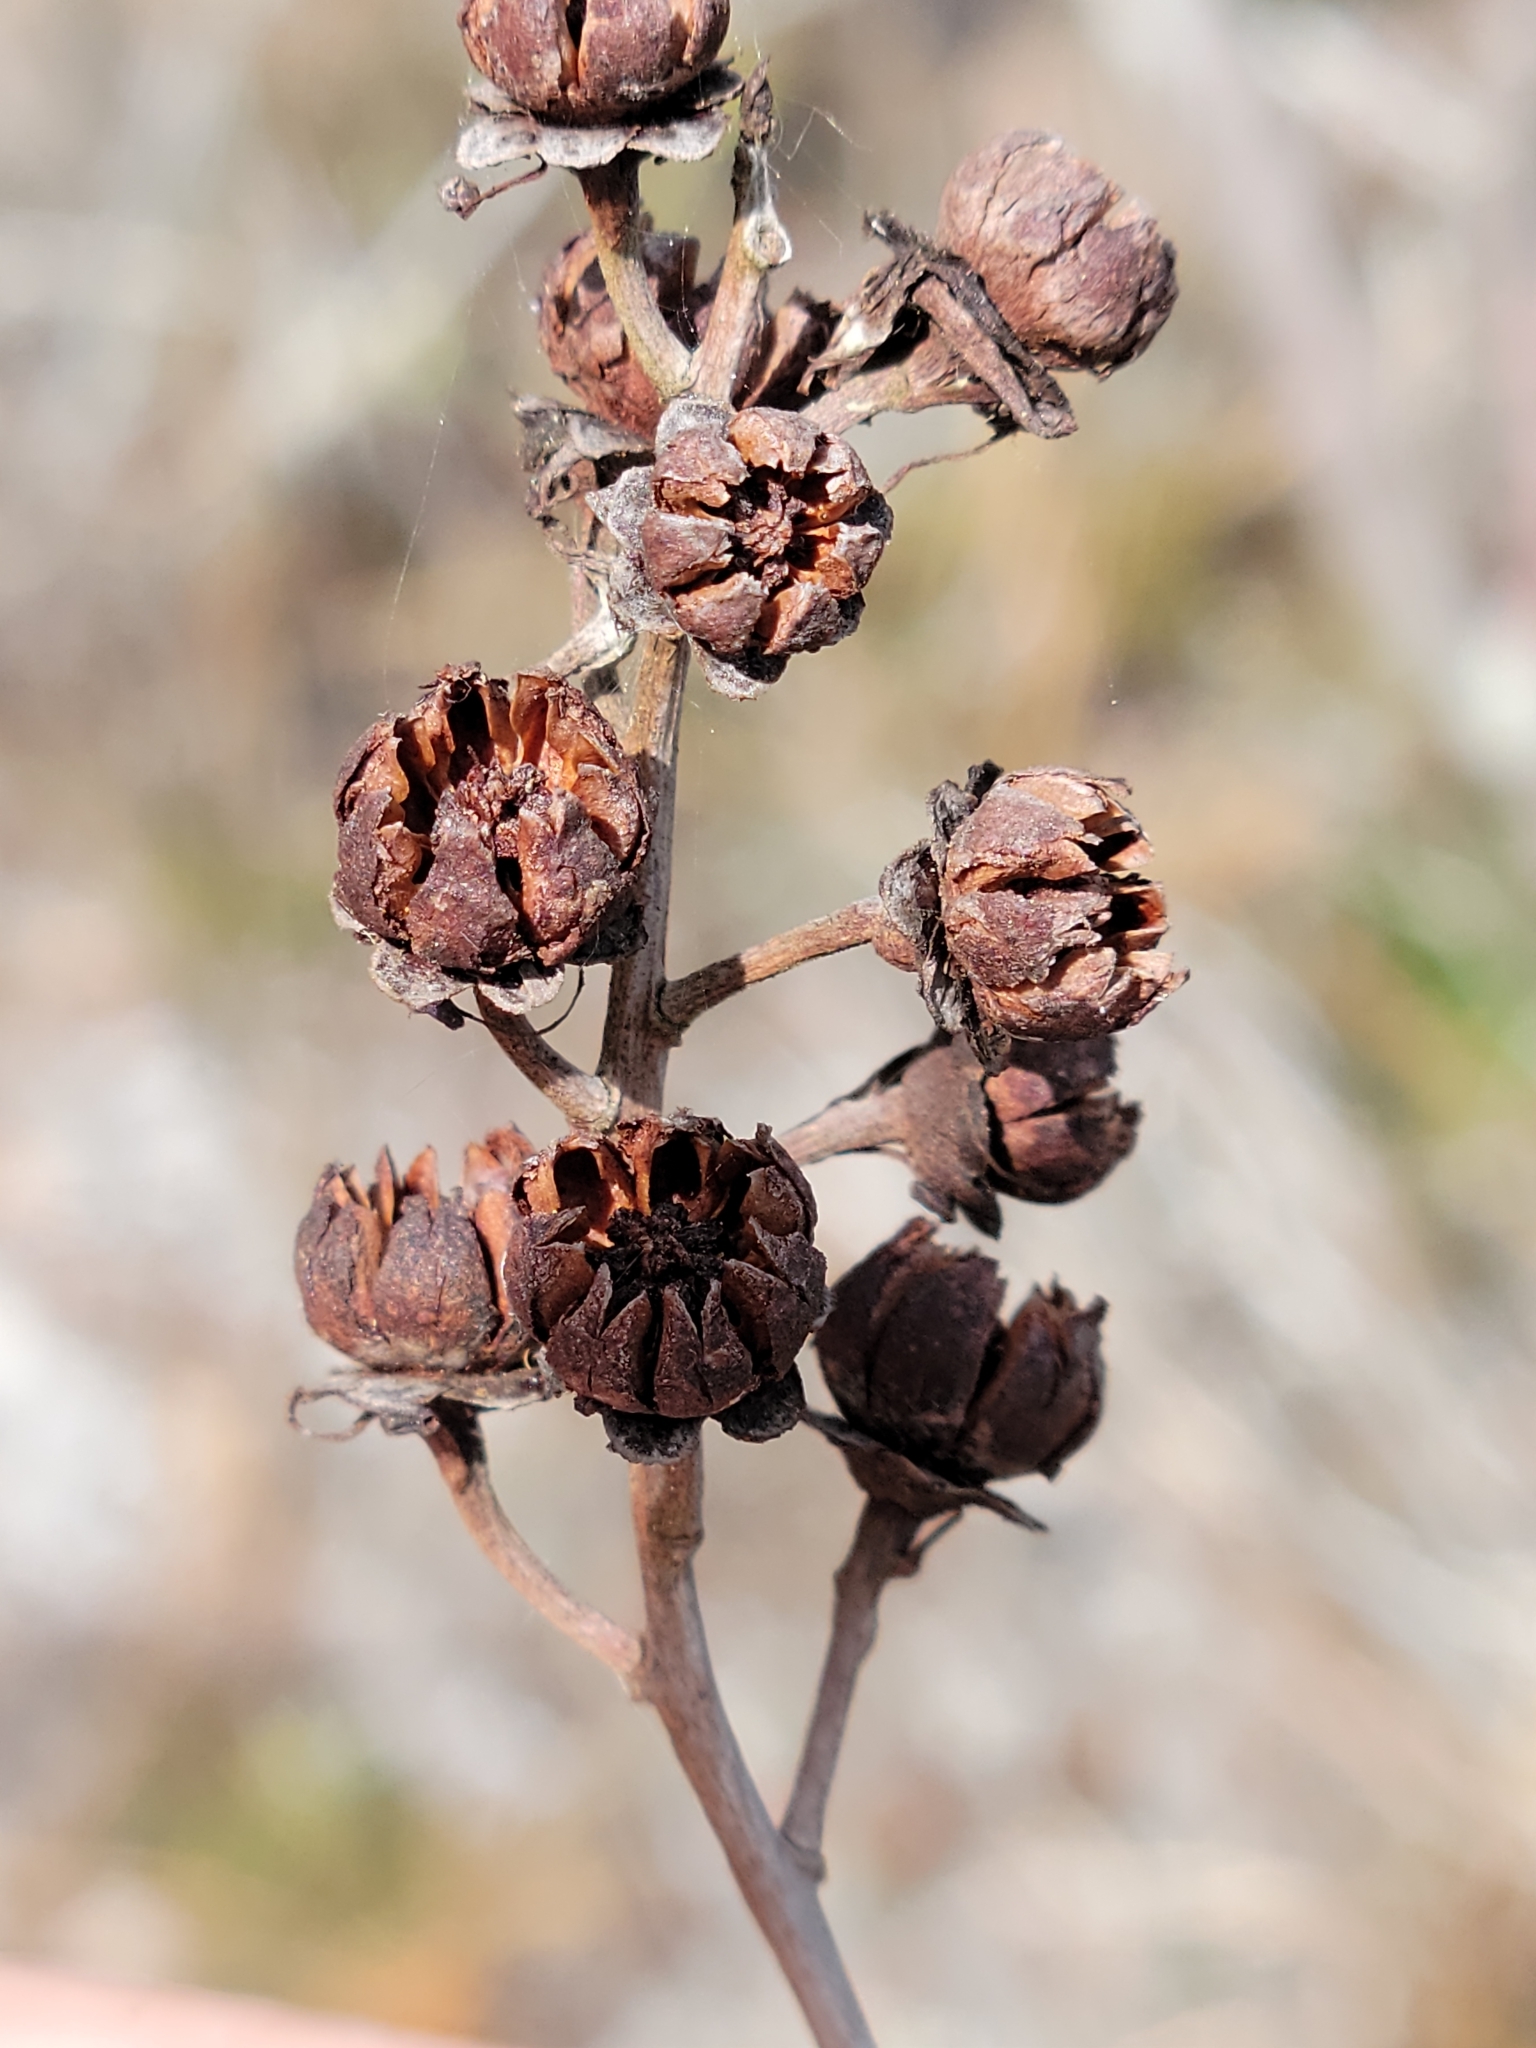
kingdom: Plantae
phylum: Tracheophyta
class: Magnoliopsida
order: Ericales
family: Ericaceae
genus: Bejaria
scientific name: Bejaria racemosa
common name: Tarflower
